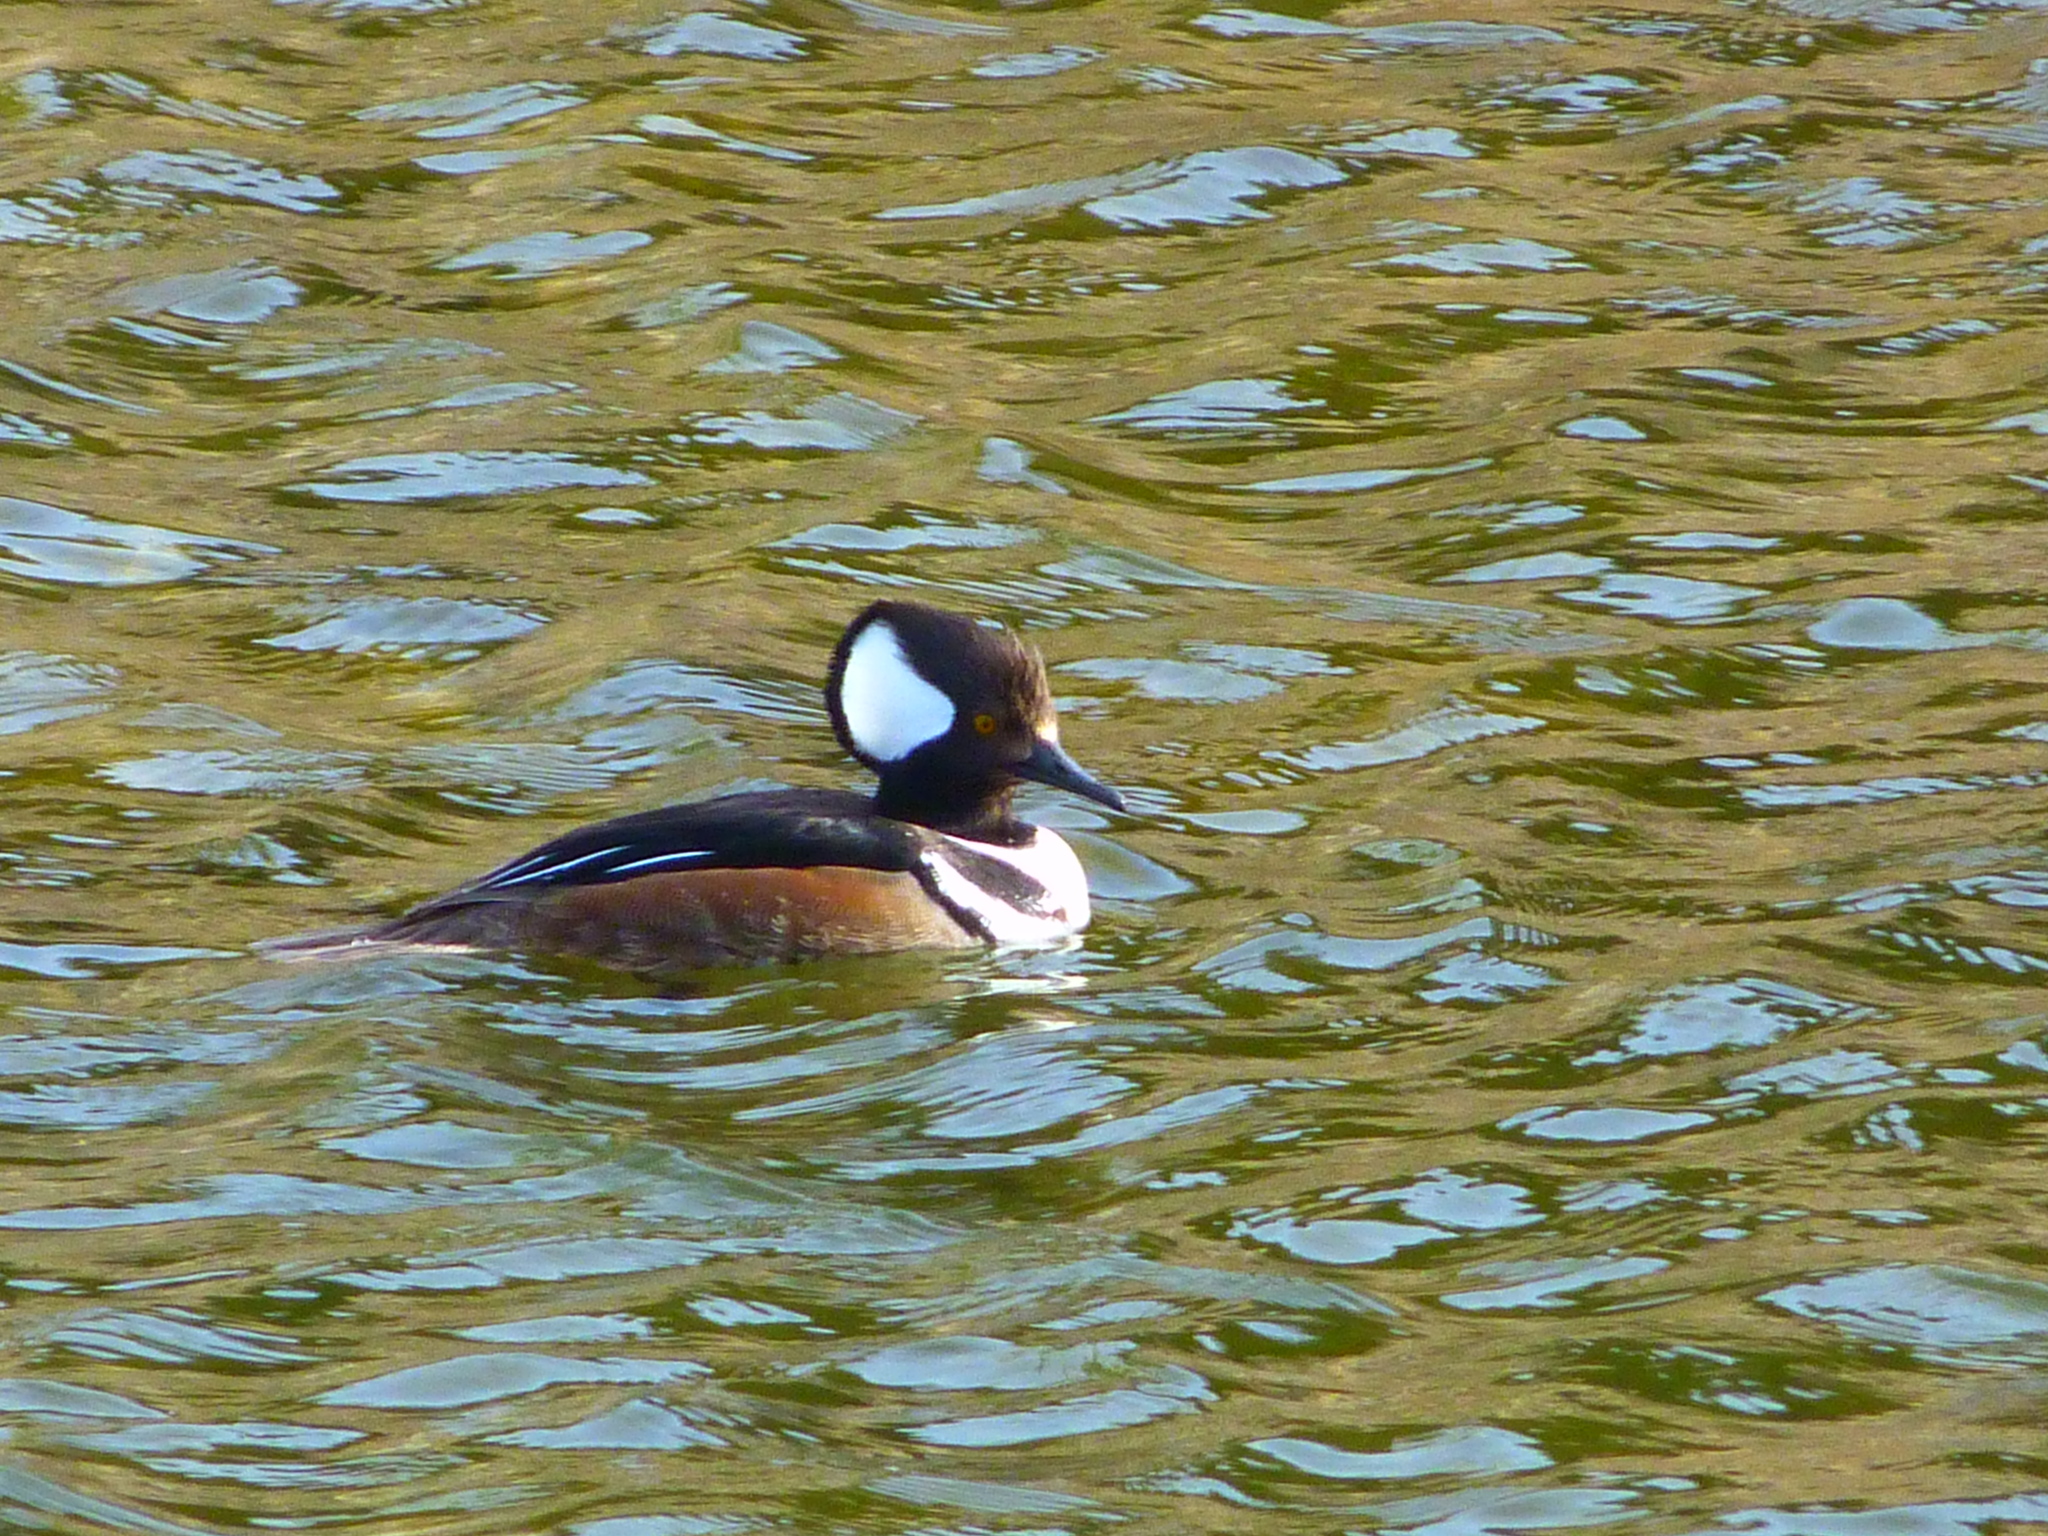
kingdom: Animalia
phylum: Chordata
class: Aves
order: Anseriformes
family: Anatidae
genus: Lophodytes
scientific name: Lophodytes cucullatus
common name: Hooded merganser
